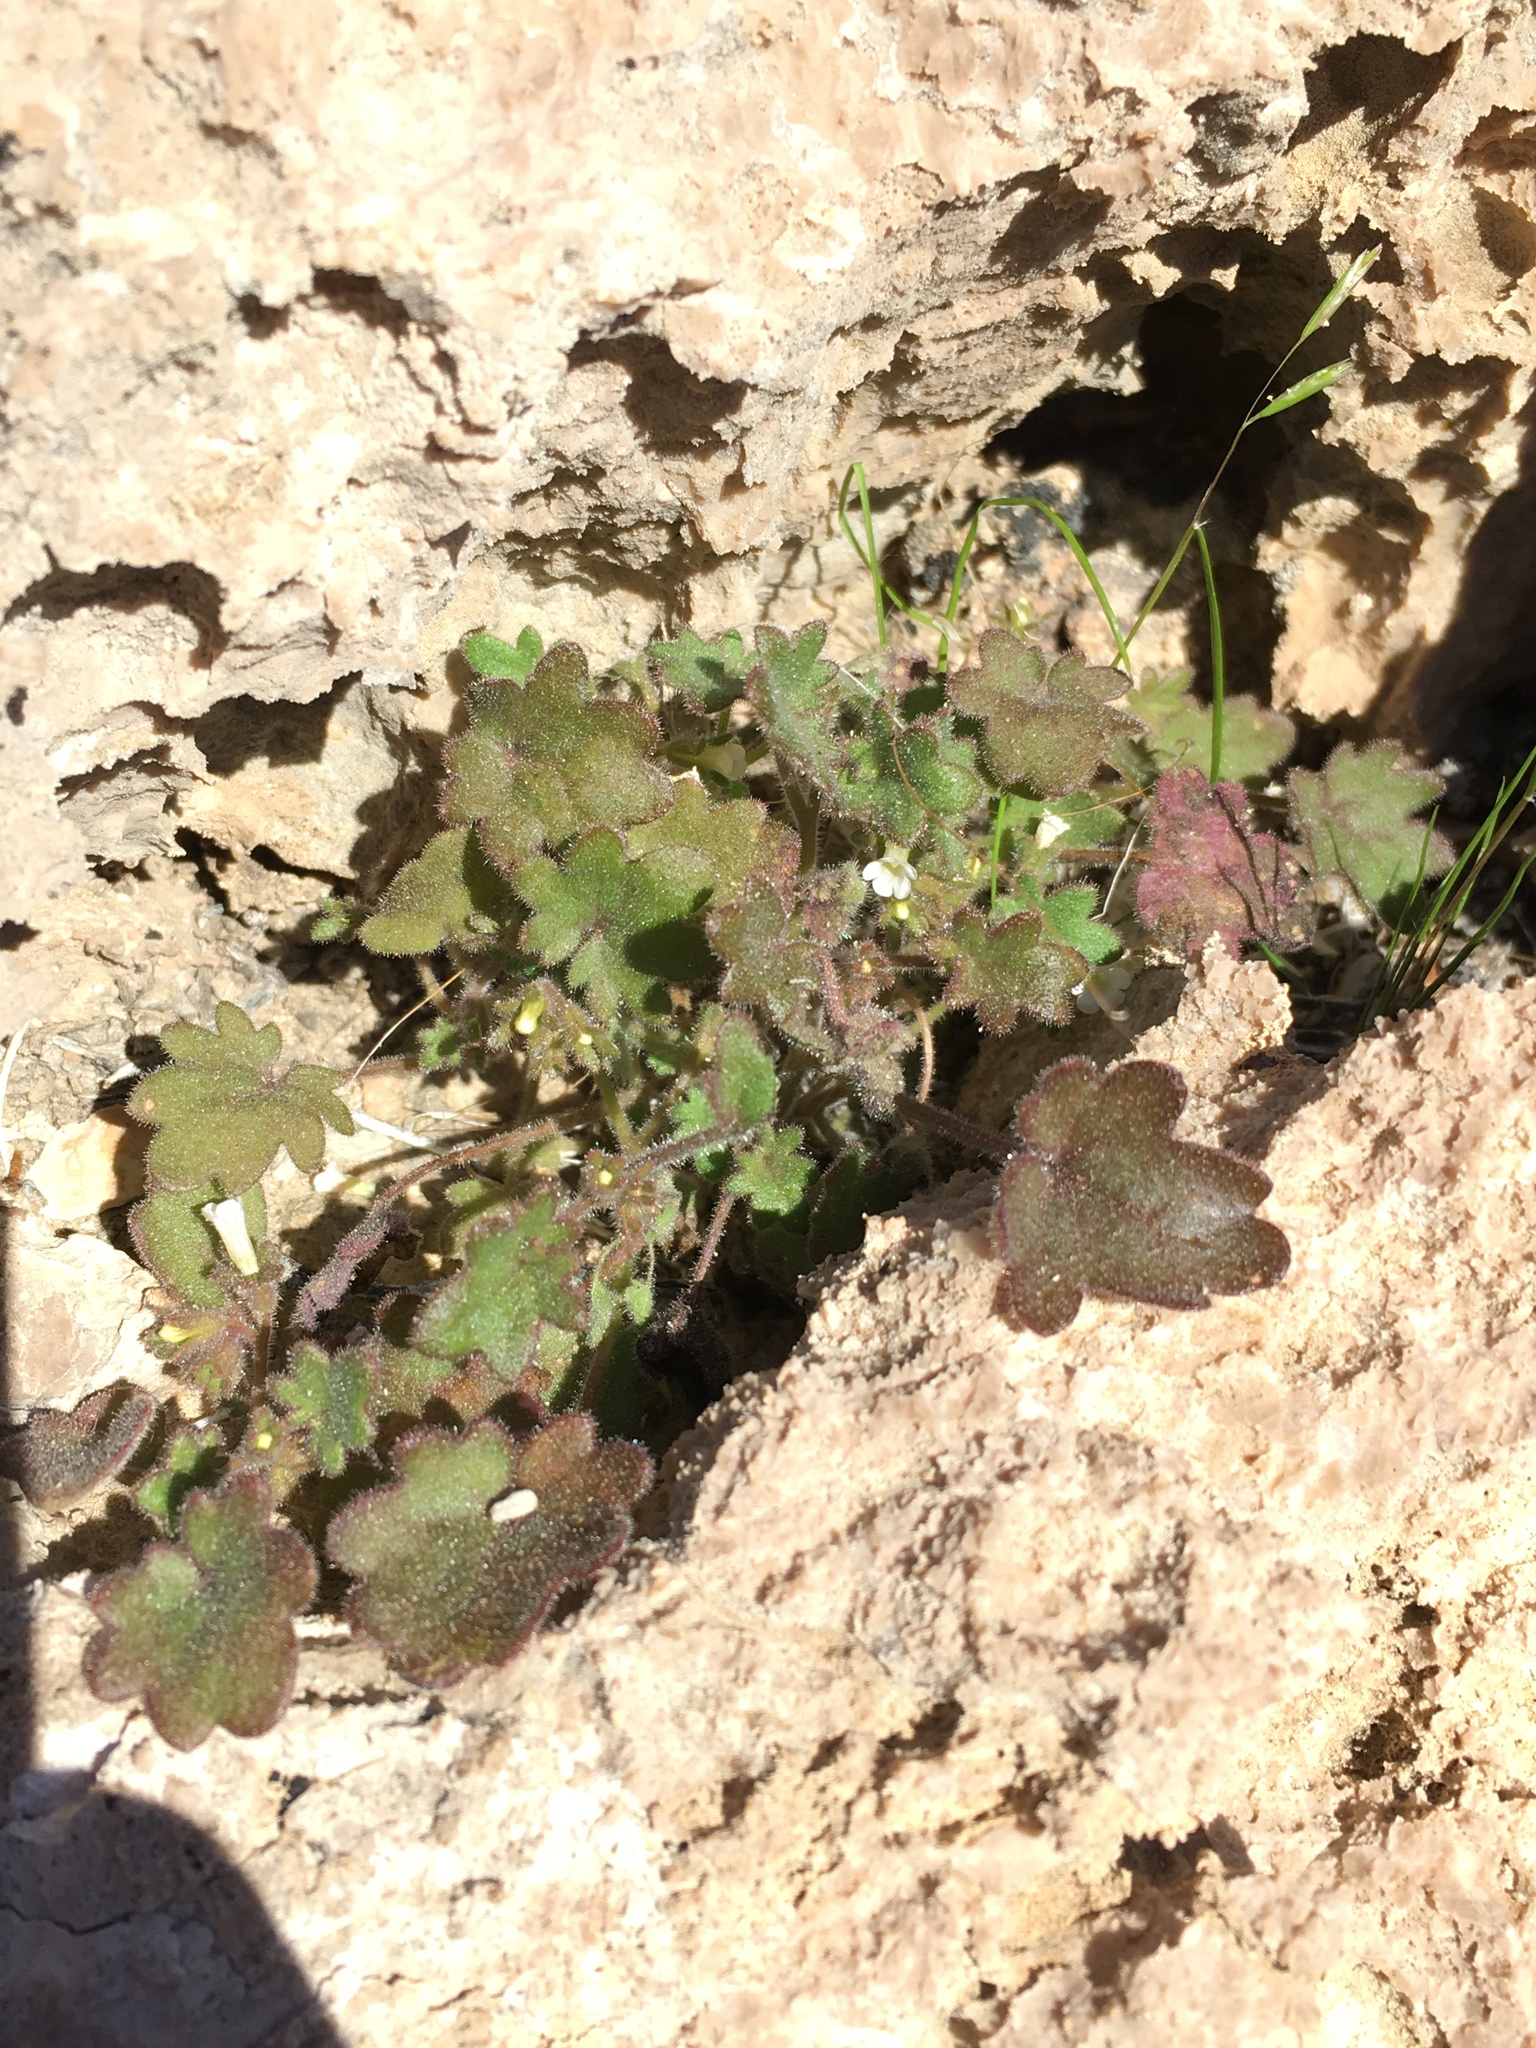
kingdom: Plantae
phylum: Tracheophyta
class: Magnoliopsida
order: Boraginales
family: Hydrophyllaceae
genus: Phacelia
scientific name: Phacelia rotundifolia
